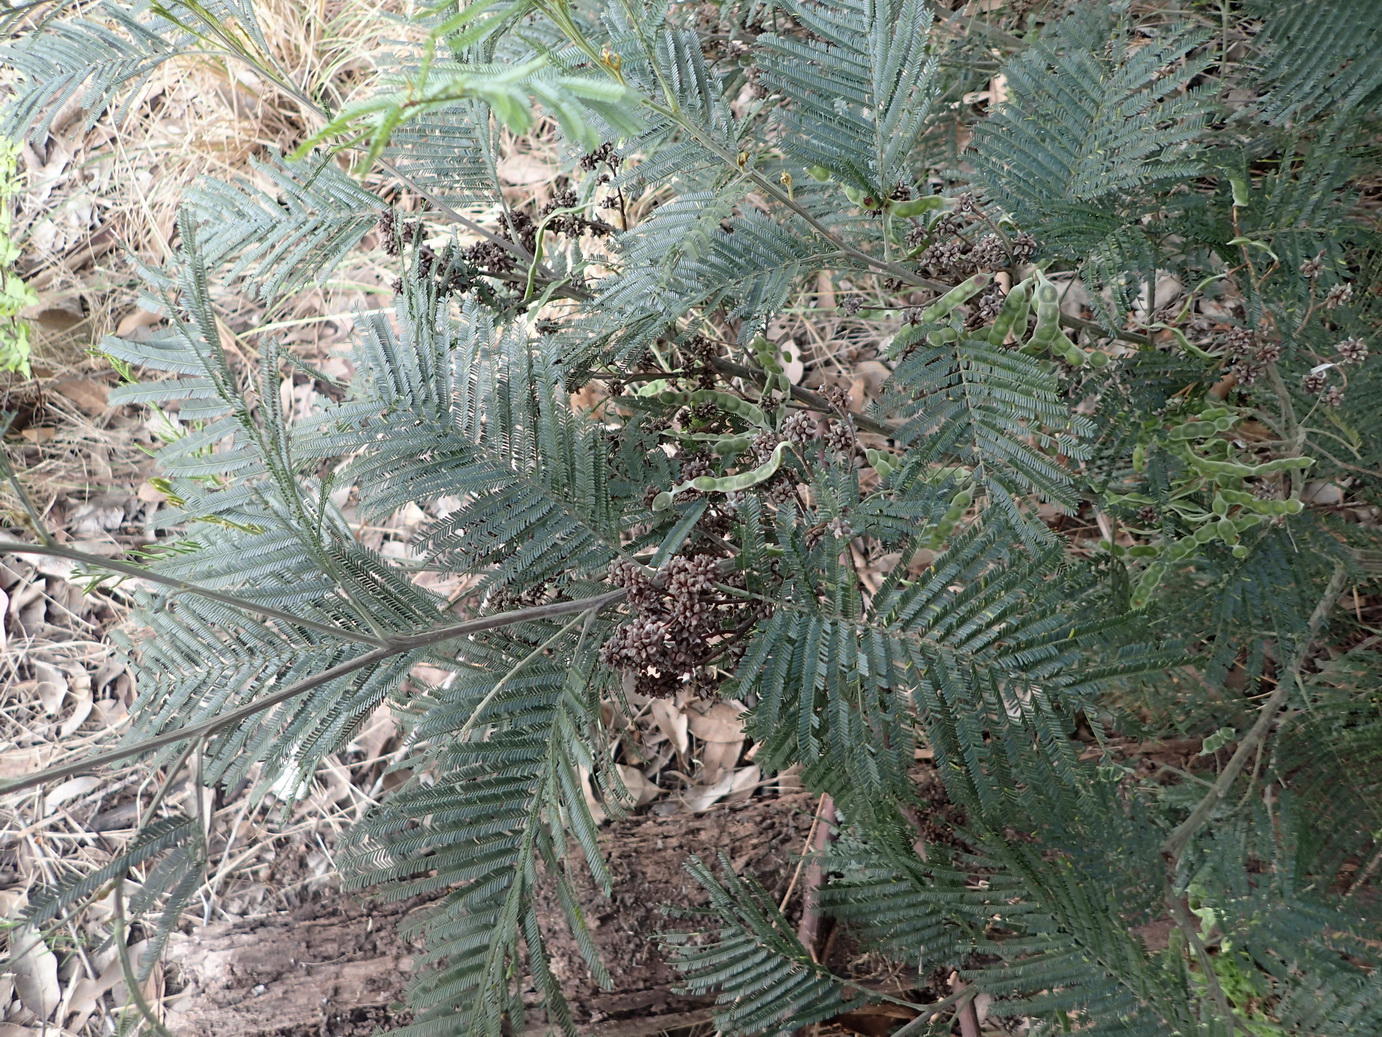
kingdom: Animalia
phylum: Arthropoda
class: Insecta
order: Diptera
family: Cecidomyiidae
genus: Dasineura
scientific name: Dasineura rubiformis
